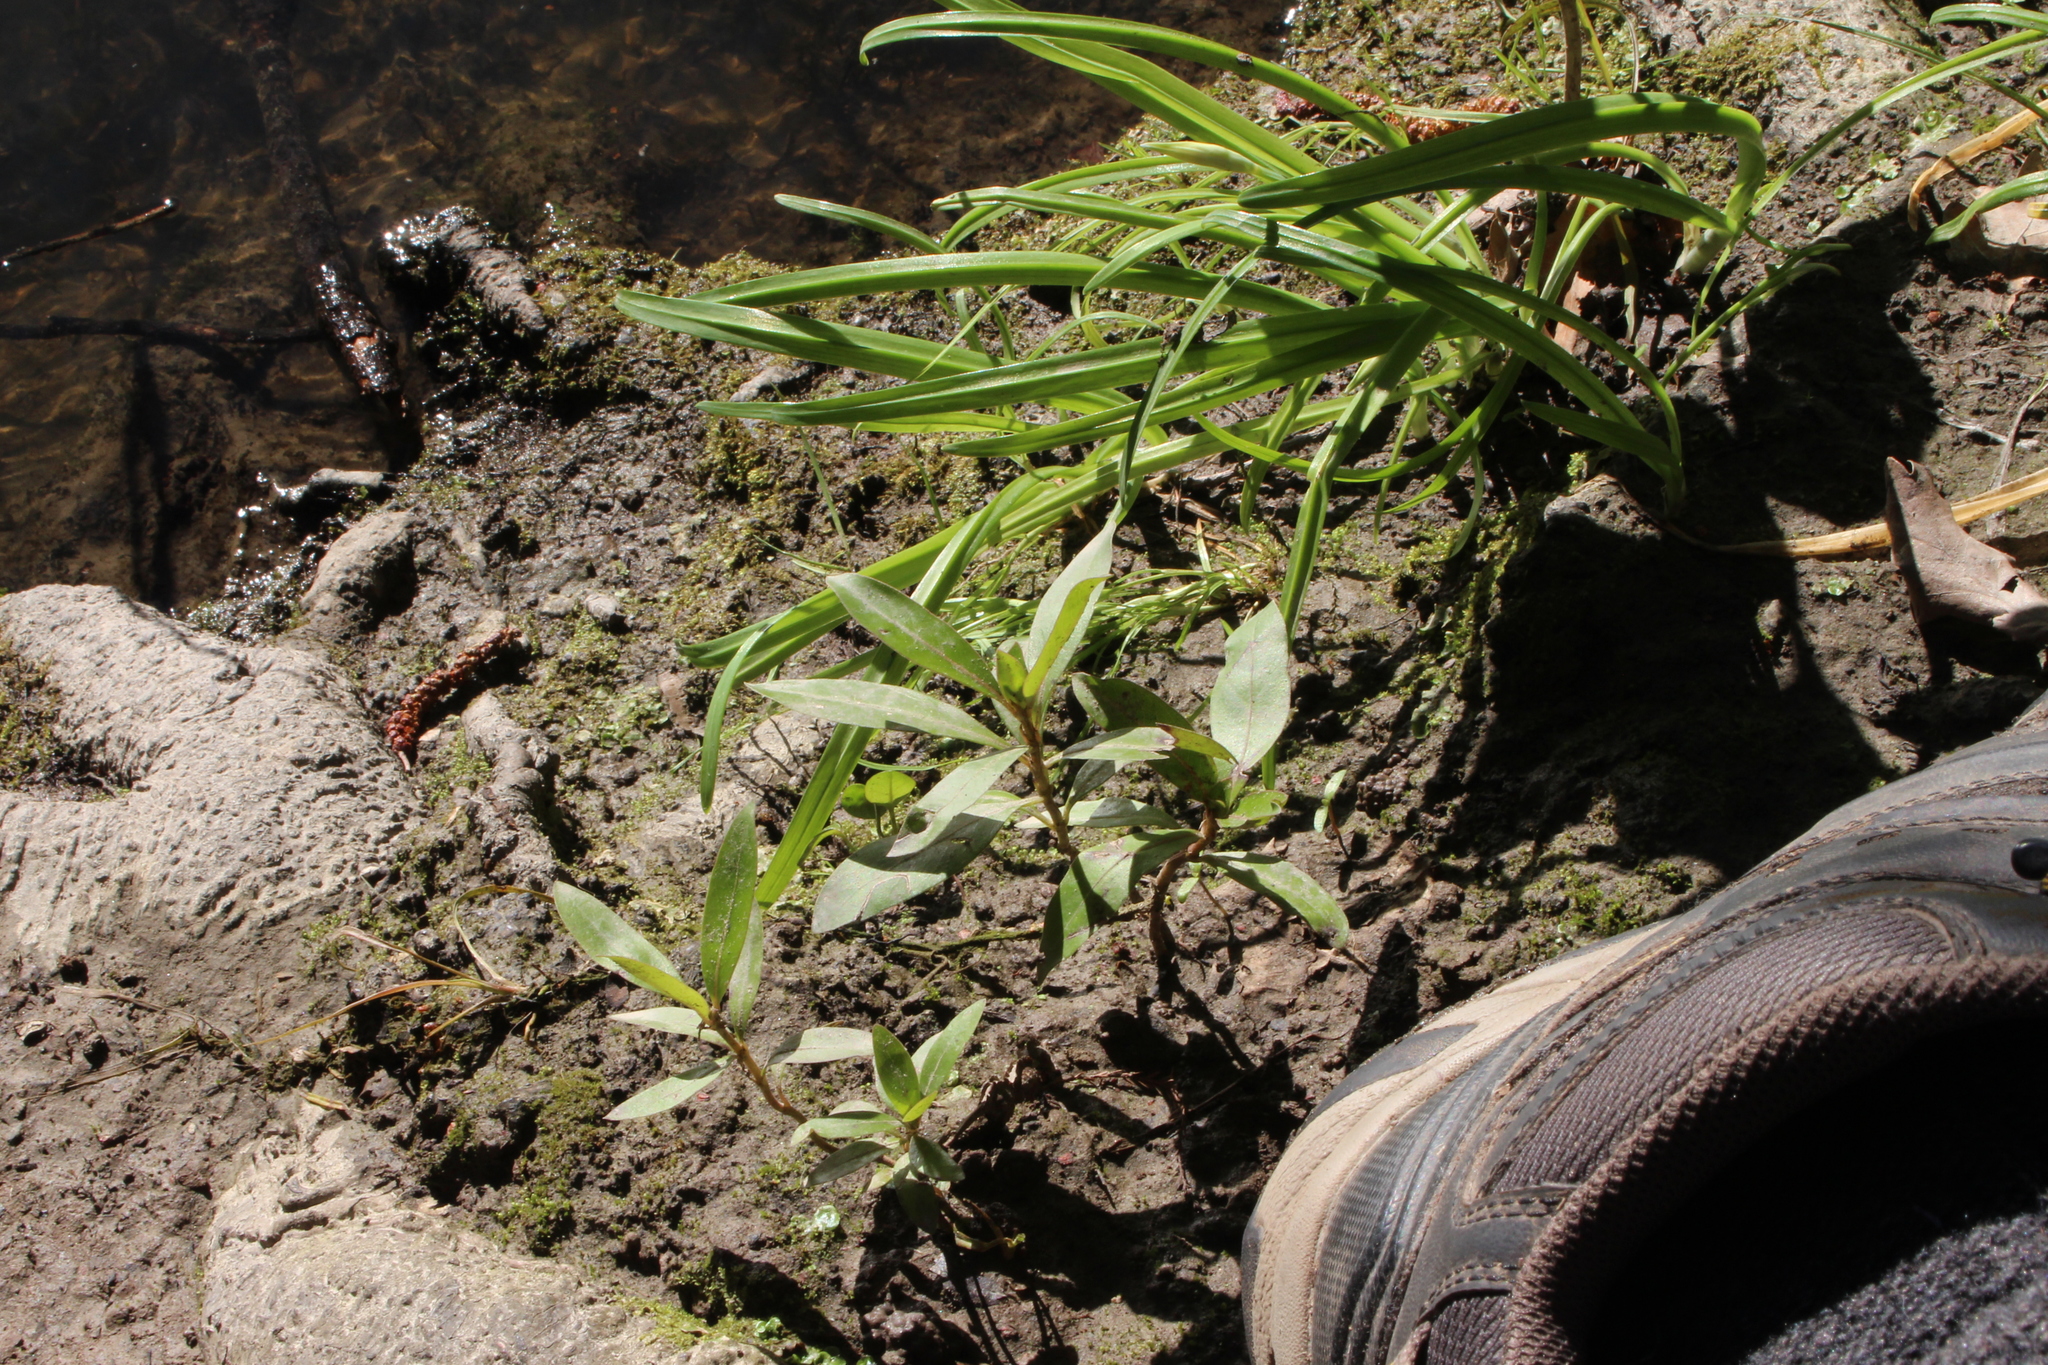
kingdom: Plantae
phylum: Tracheophyta
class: Magnoliopsida
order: Gentianales
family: Rubiaceae
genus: Coprosma
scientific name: Coprosma robusta
